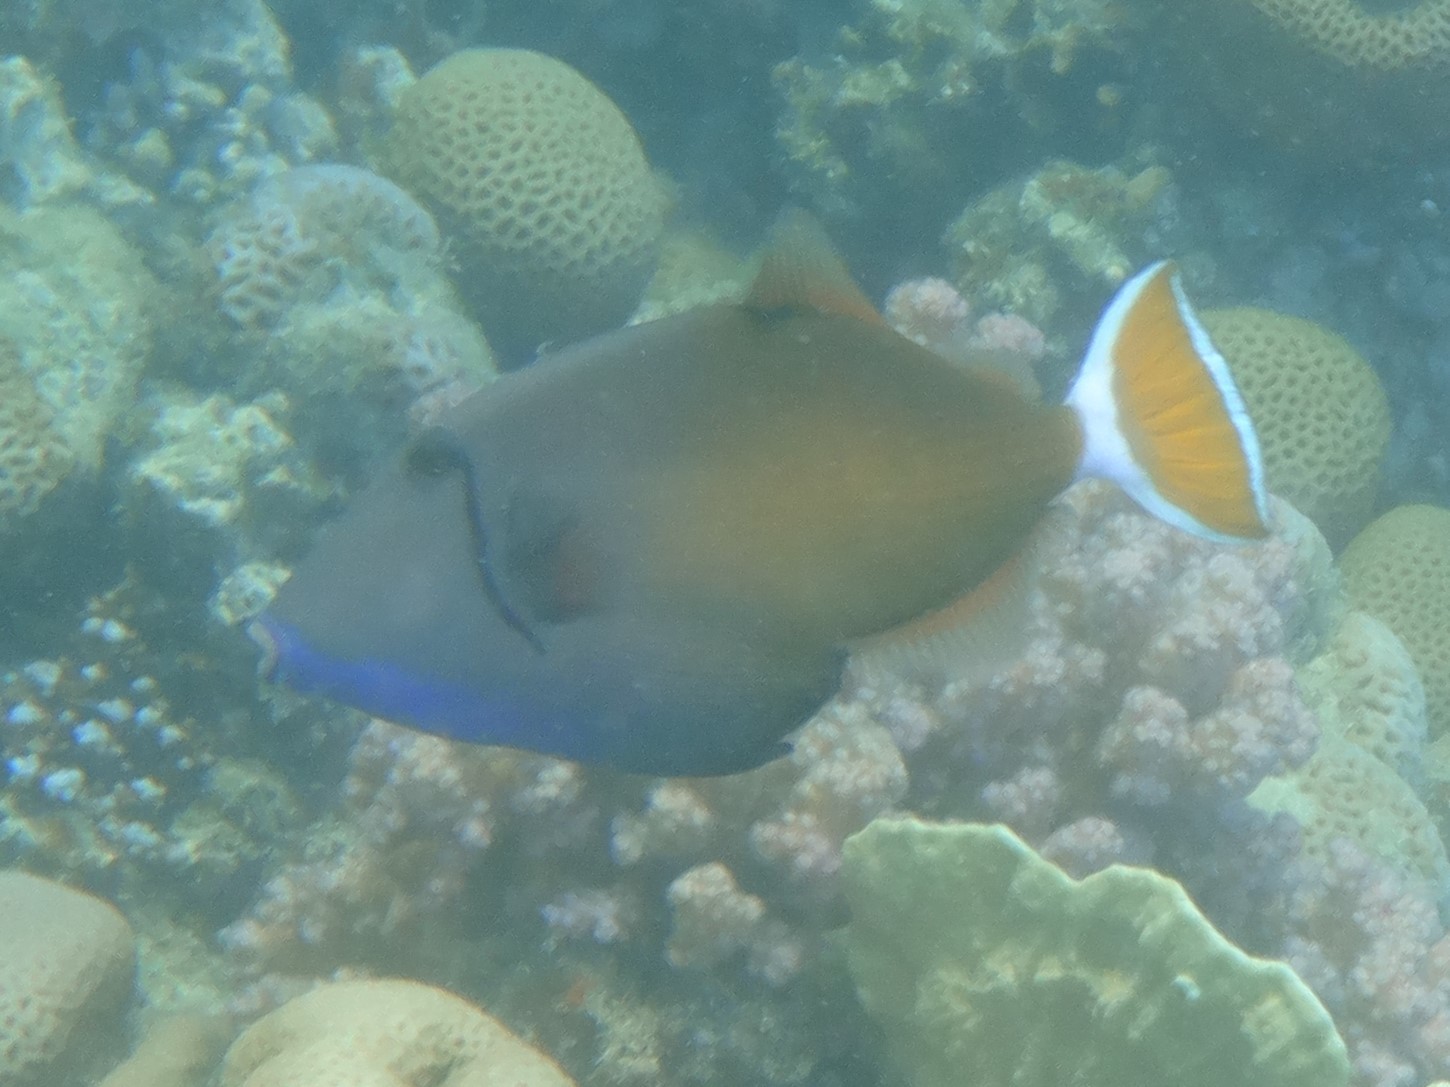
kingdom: Animalia
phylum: Chordata
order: Tetraodontiformes
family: Balistidae
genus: Sufflamen
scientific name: Sufflamen albicaudatum
